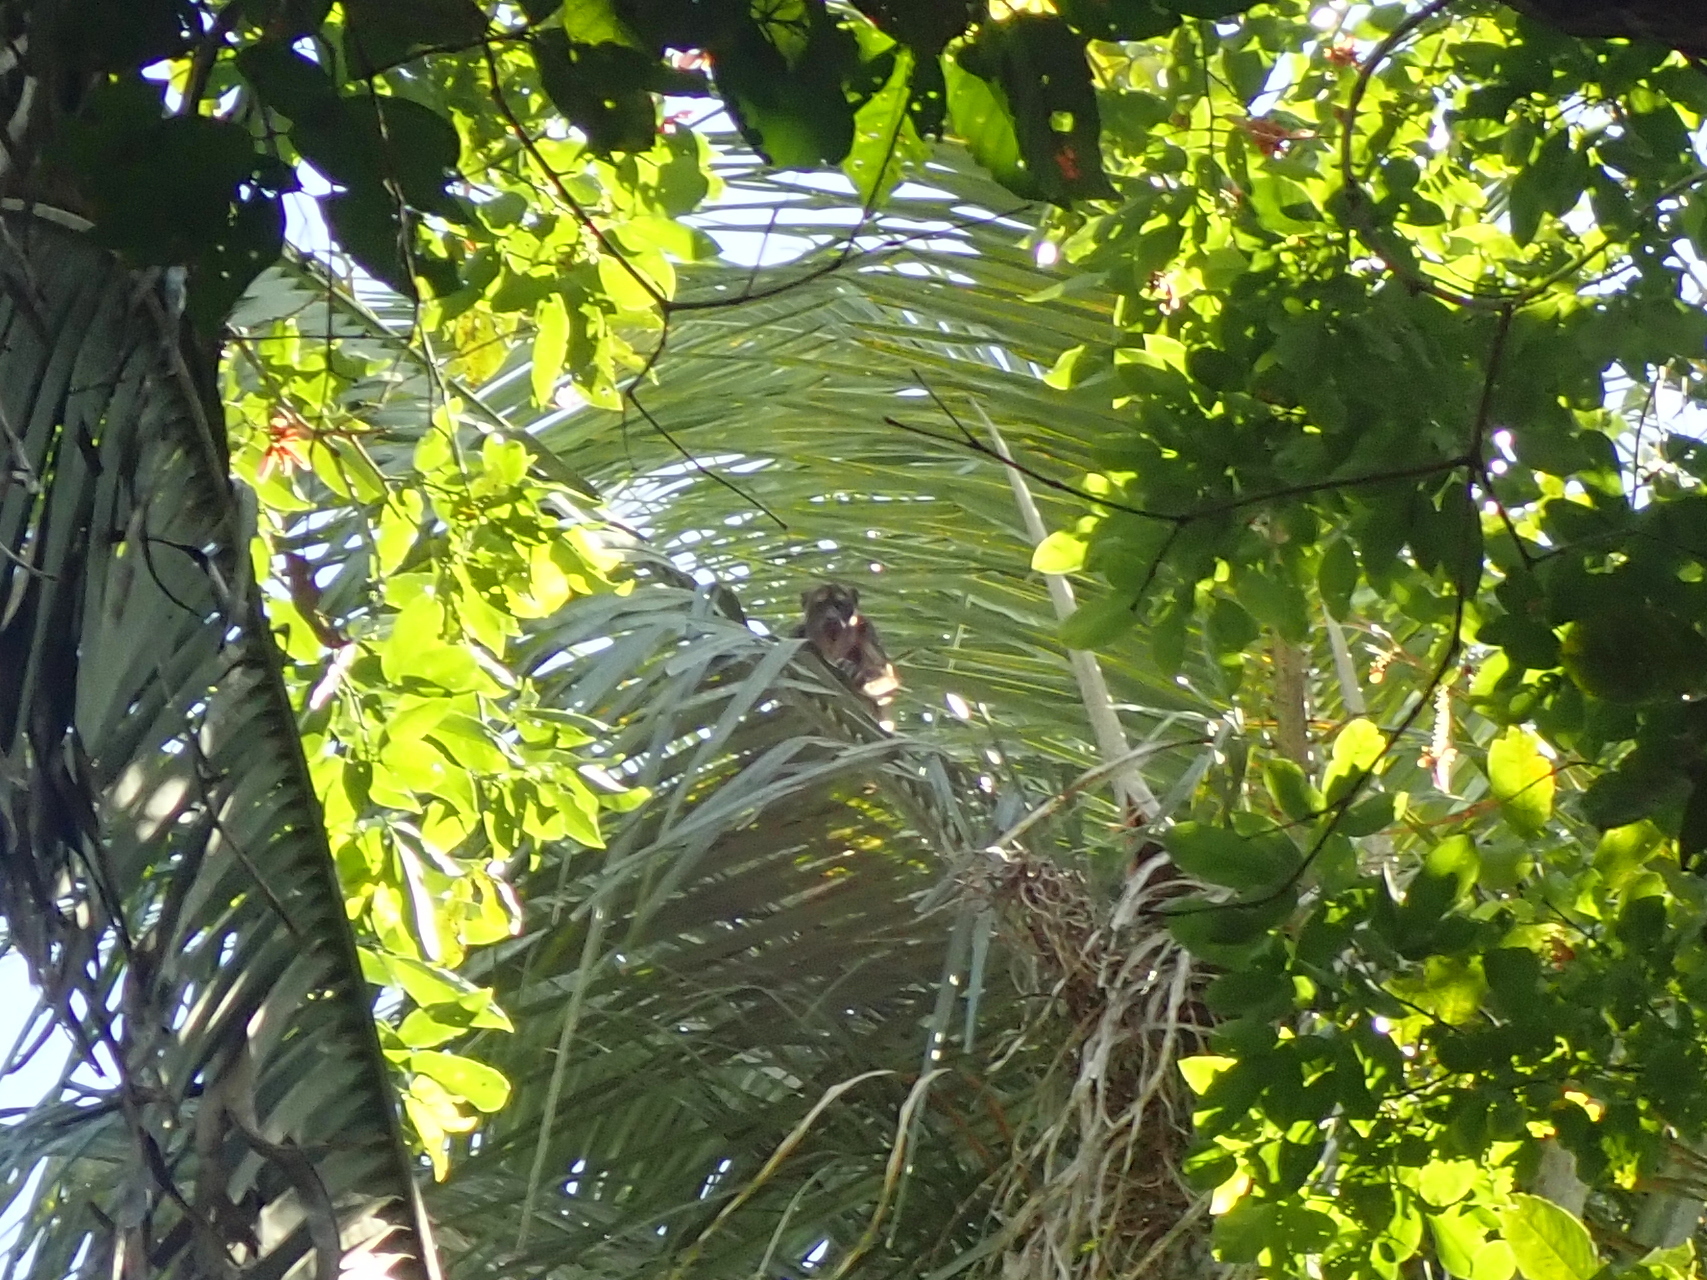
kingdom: Animalia
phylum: Chordata
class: Mammalia
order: Primates
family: Atelidae
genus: Alouatta
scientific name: Alouatta caraya
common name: Black howler
